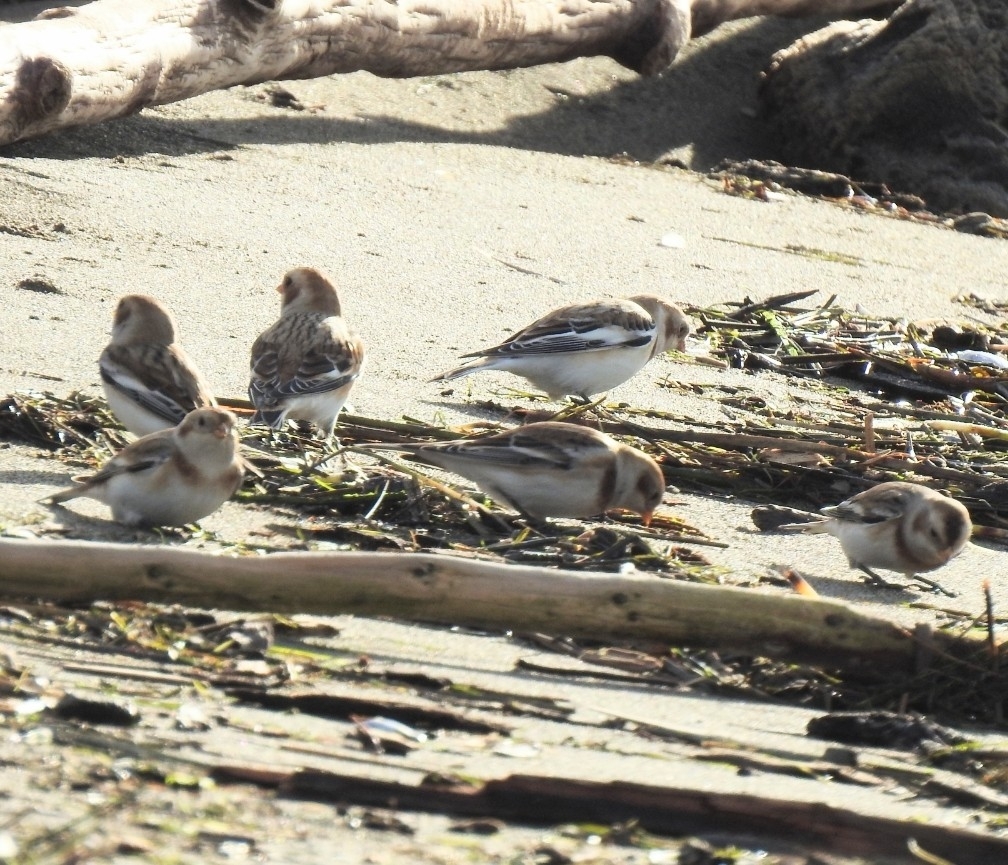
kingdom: Animalia
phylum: Chordata
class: Aves
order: Passeriformes
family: Calcariidae
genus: Plectrophenax
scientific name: Plectrophenax nivalis
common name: Snow bunting
